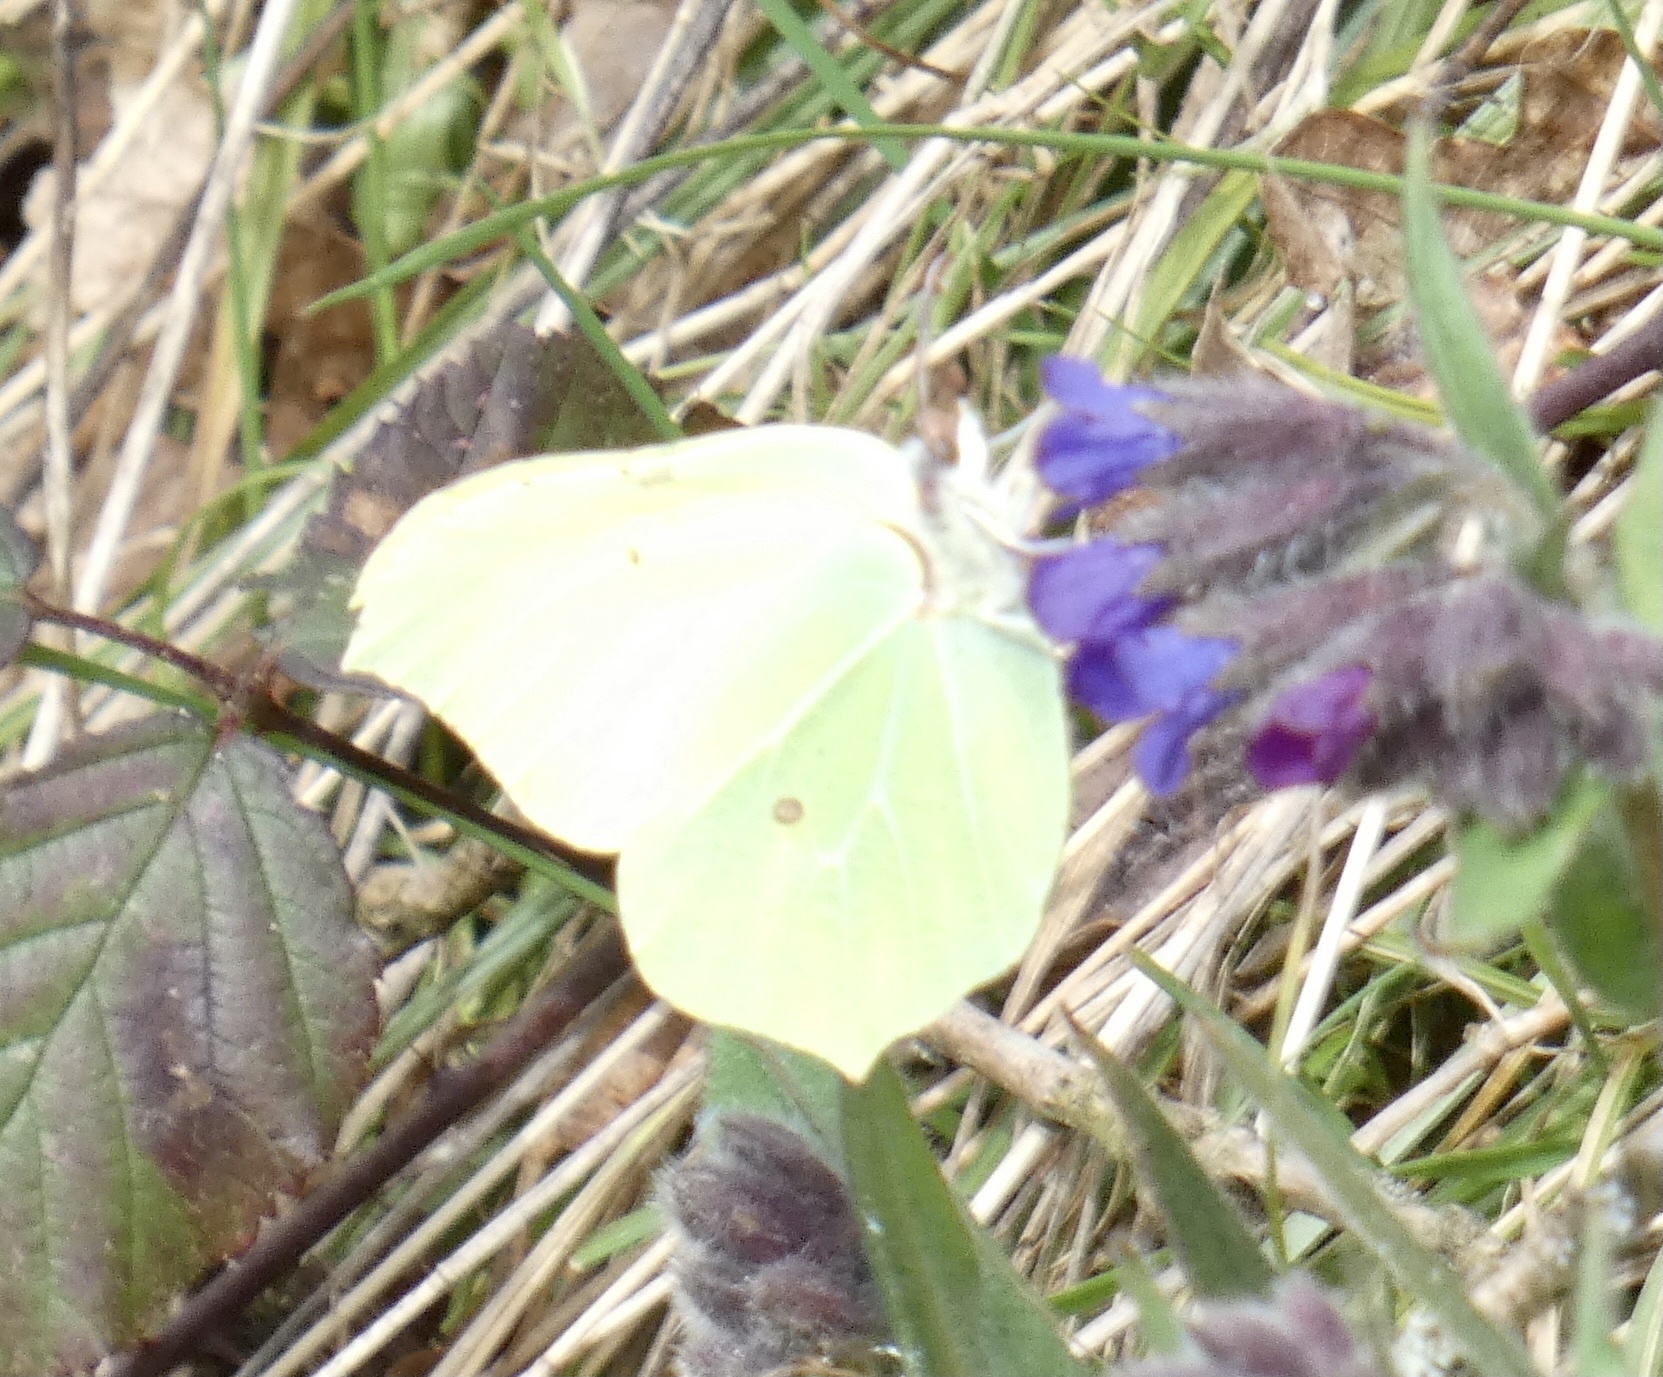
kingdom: Animalia
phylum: Arthropoda
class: Insecta
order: Lepidoptera
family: Pieridae
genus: Gonepteryx
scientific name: Gonepteryx rhamni
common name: Brimstone
